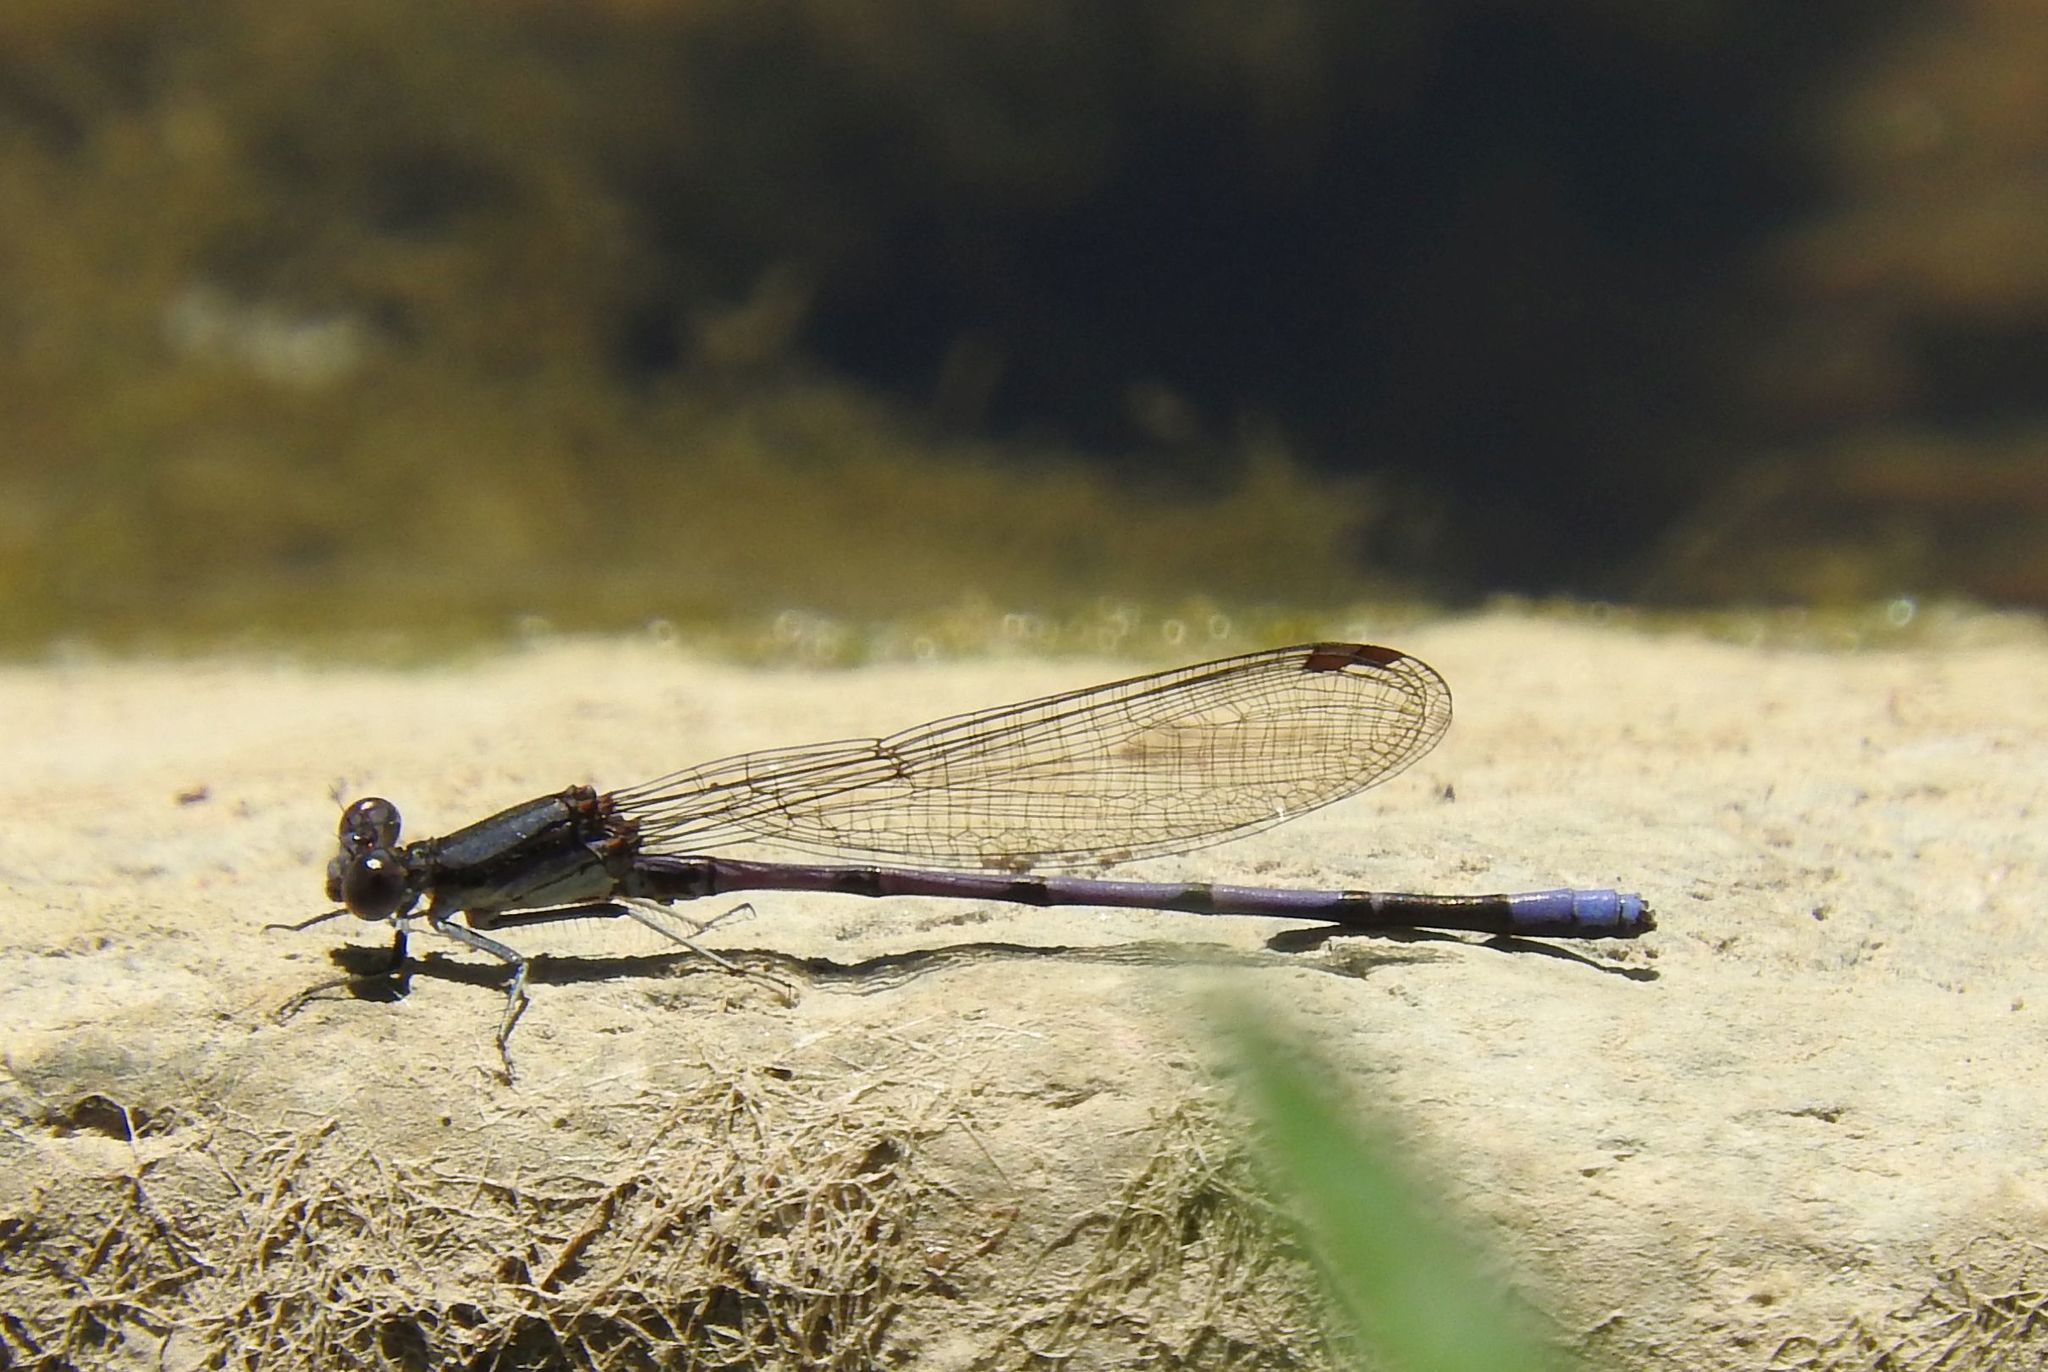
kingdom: Animalia
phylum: Arthropoda
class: Insecta
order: Odonata
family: Coenagrionidae
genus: Argia
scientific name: Argia fumipennis
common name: Variable dancer
